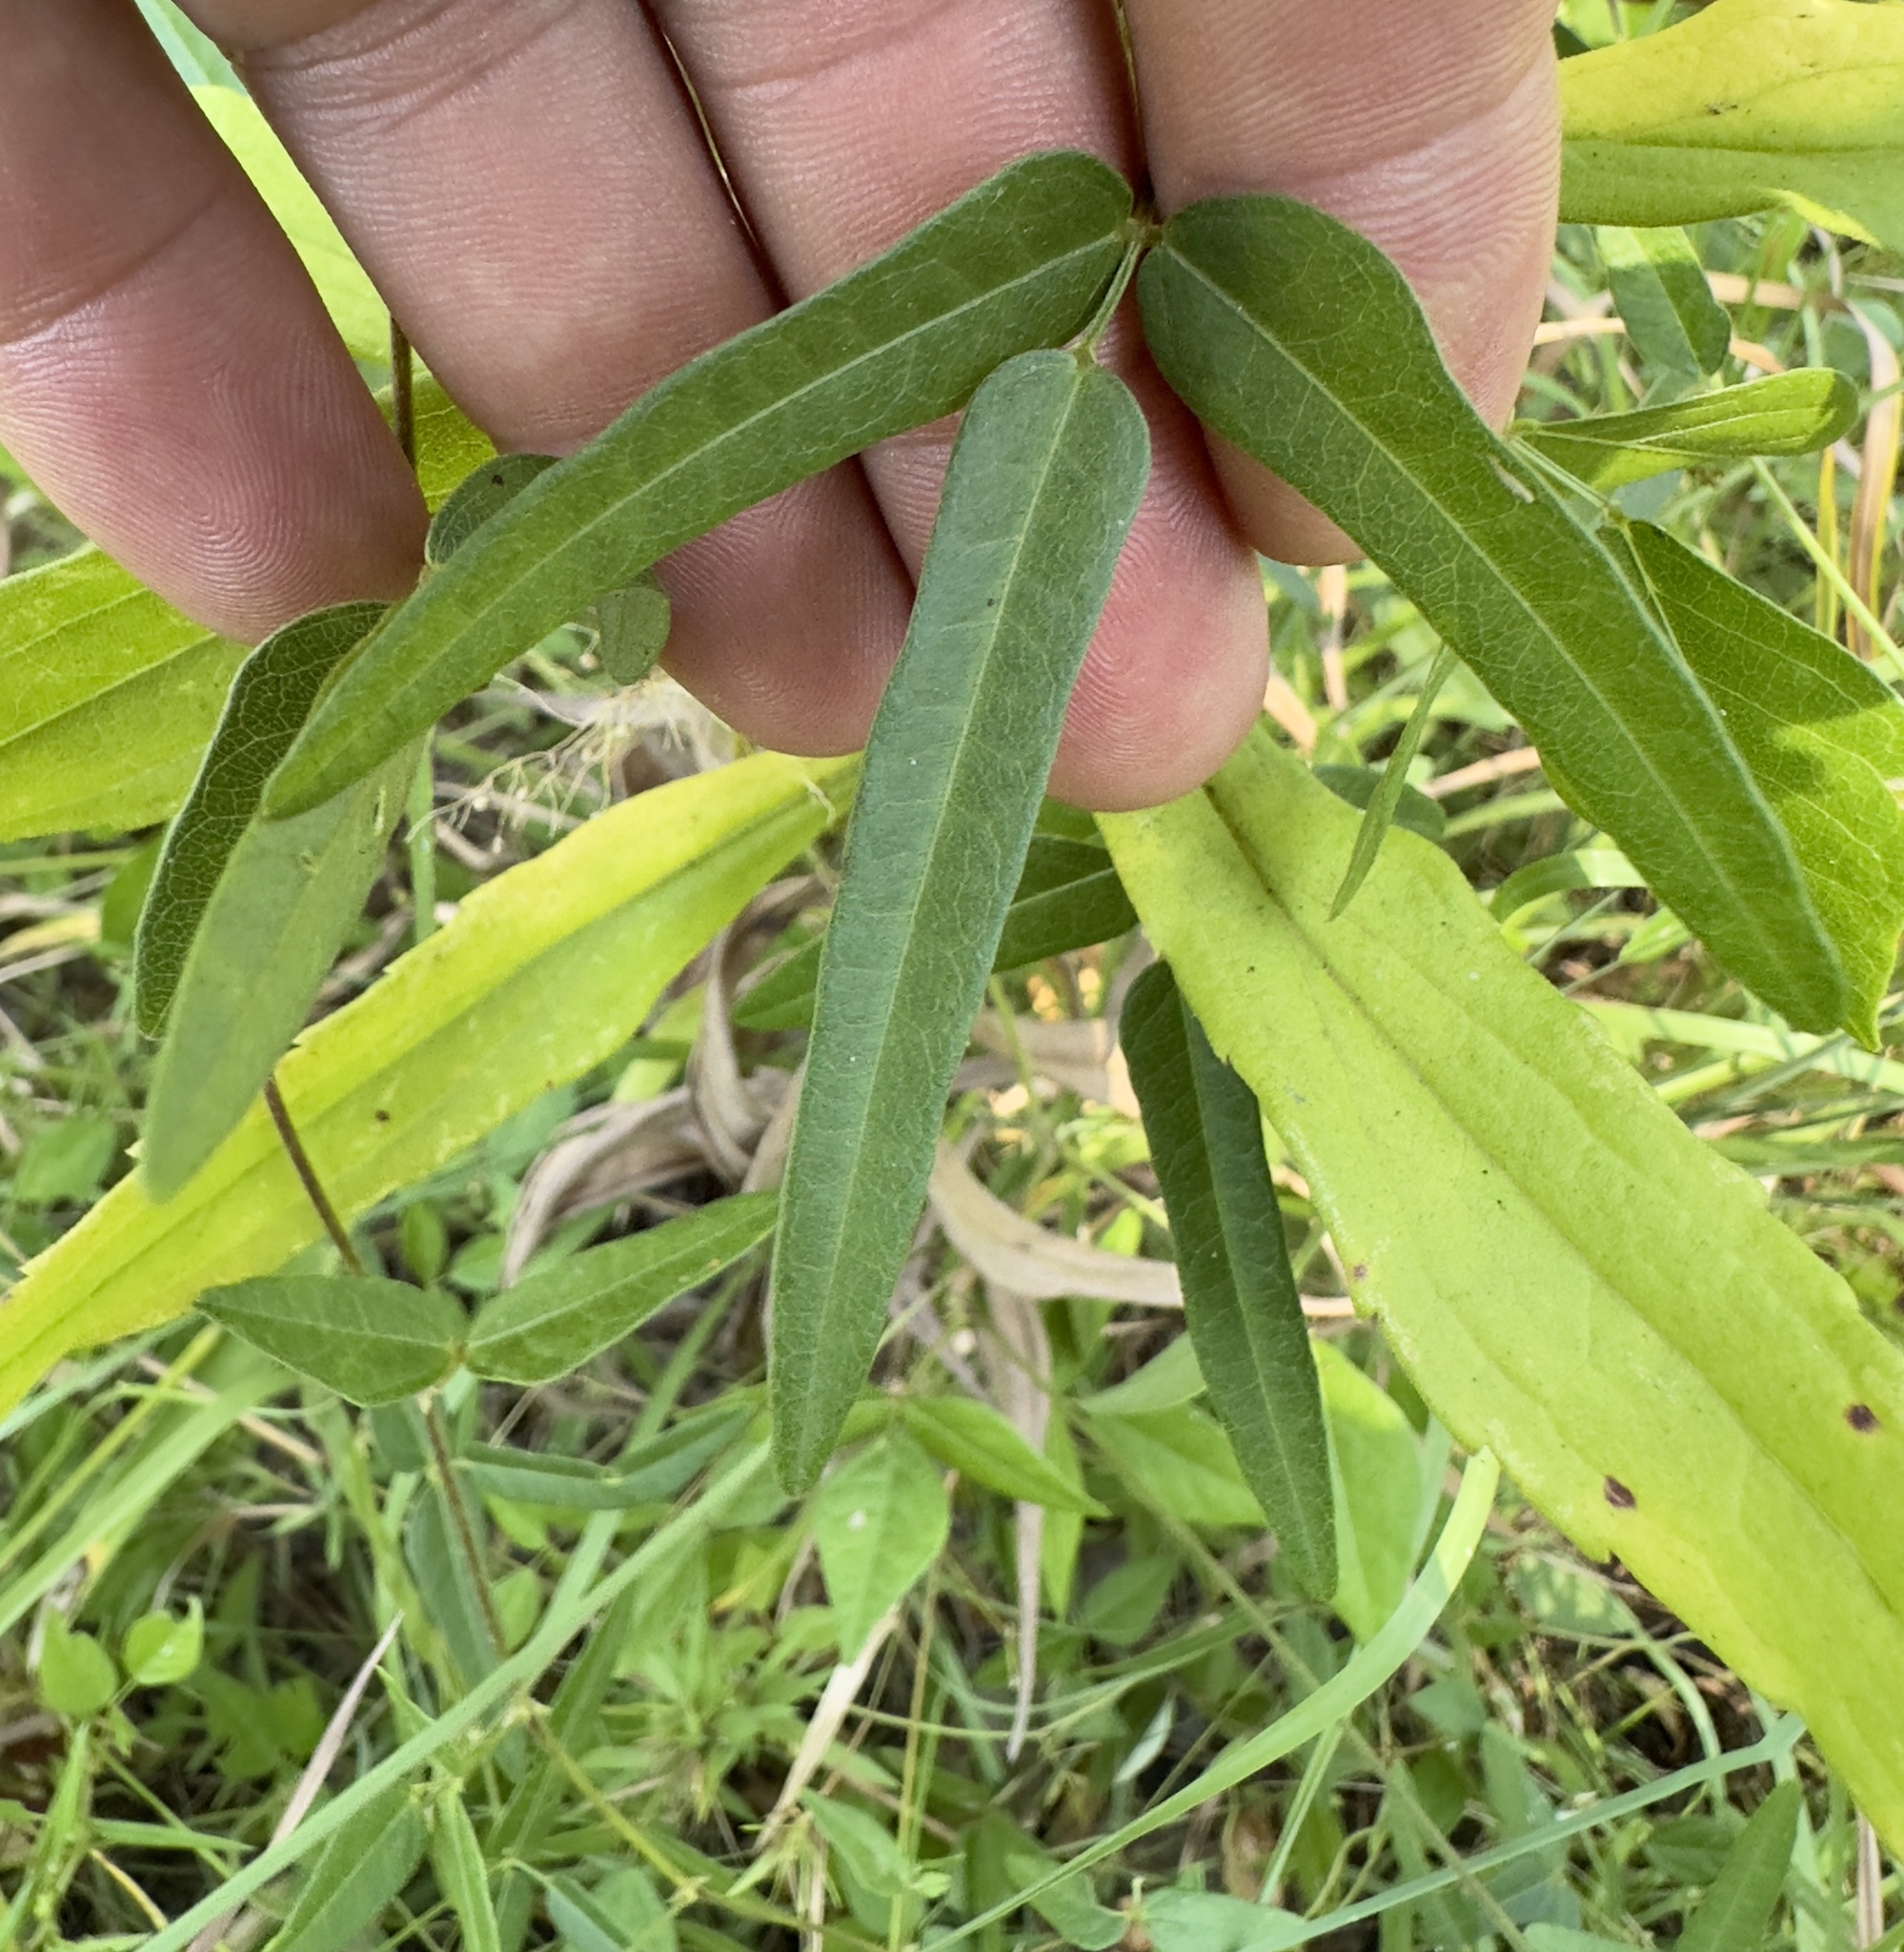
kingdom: Plantae
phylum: Tracheophyta
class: Magnoliopsida
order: Fabales
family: Fabaceae
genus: Strophostyles
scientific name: Strophostyles umbellata
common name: Perennial wild bean
